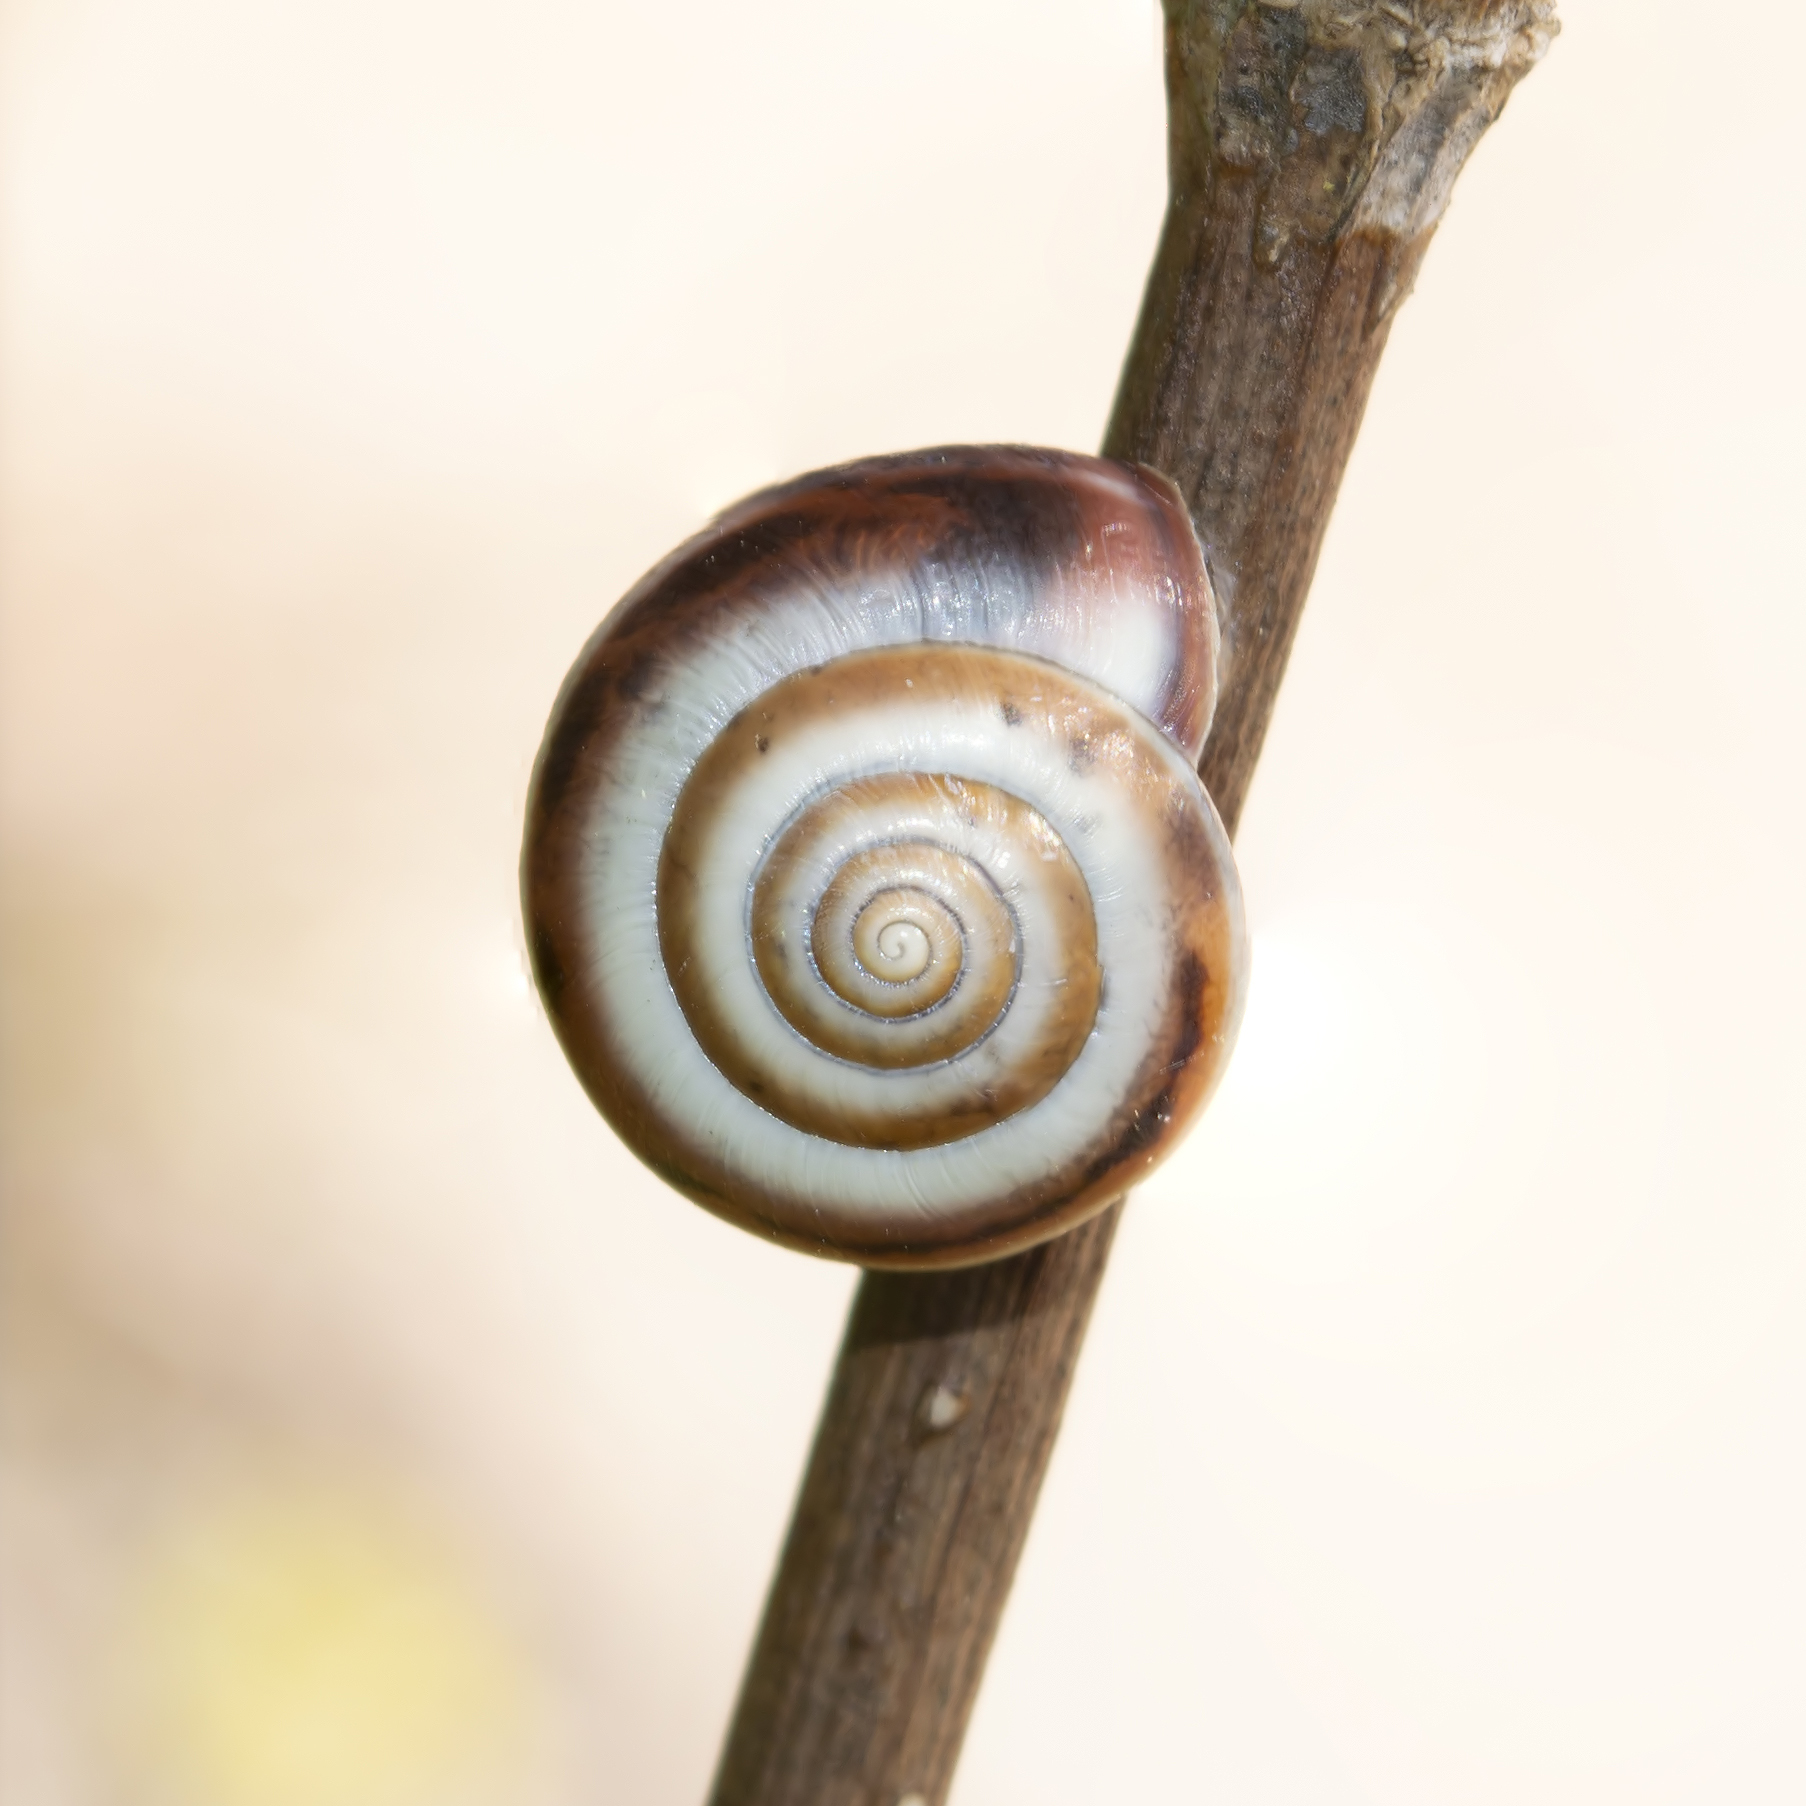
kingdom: Animalia
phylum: Mollusca
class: Gastropoda
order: Stylommatophora
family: Hygromiidae
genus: Monacha
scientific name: Monacha parumcincta
